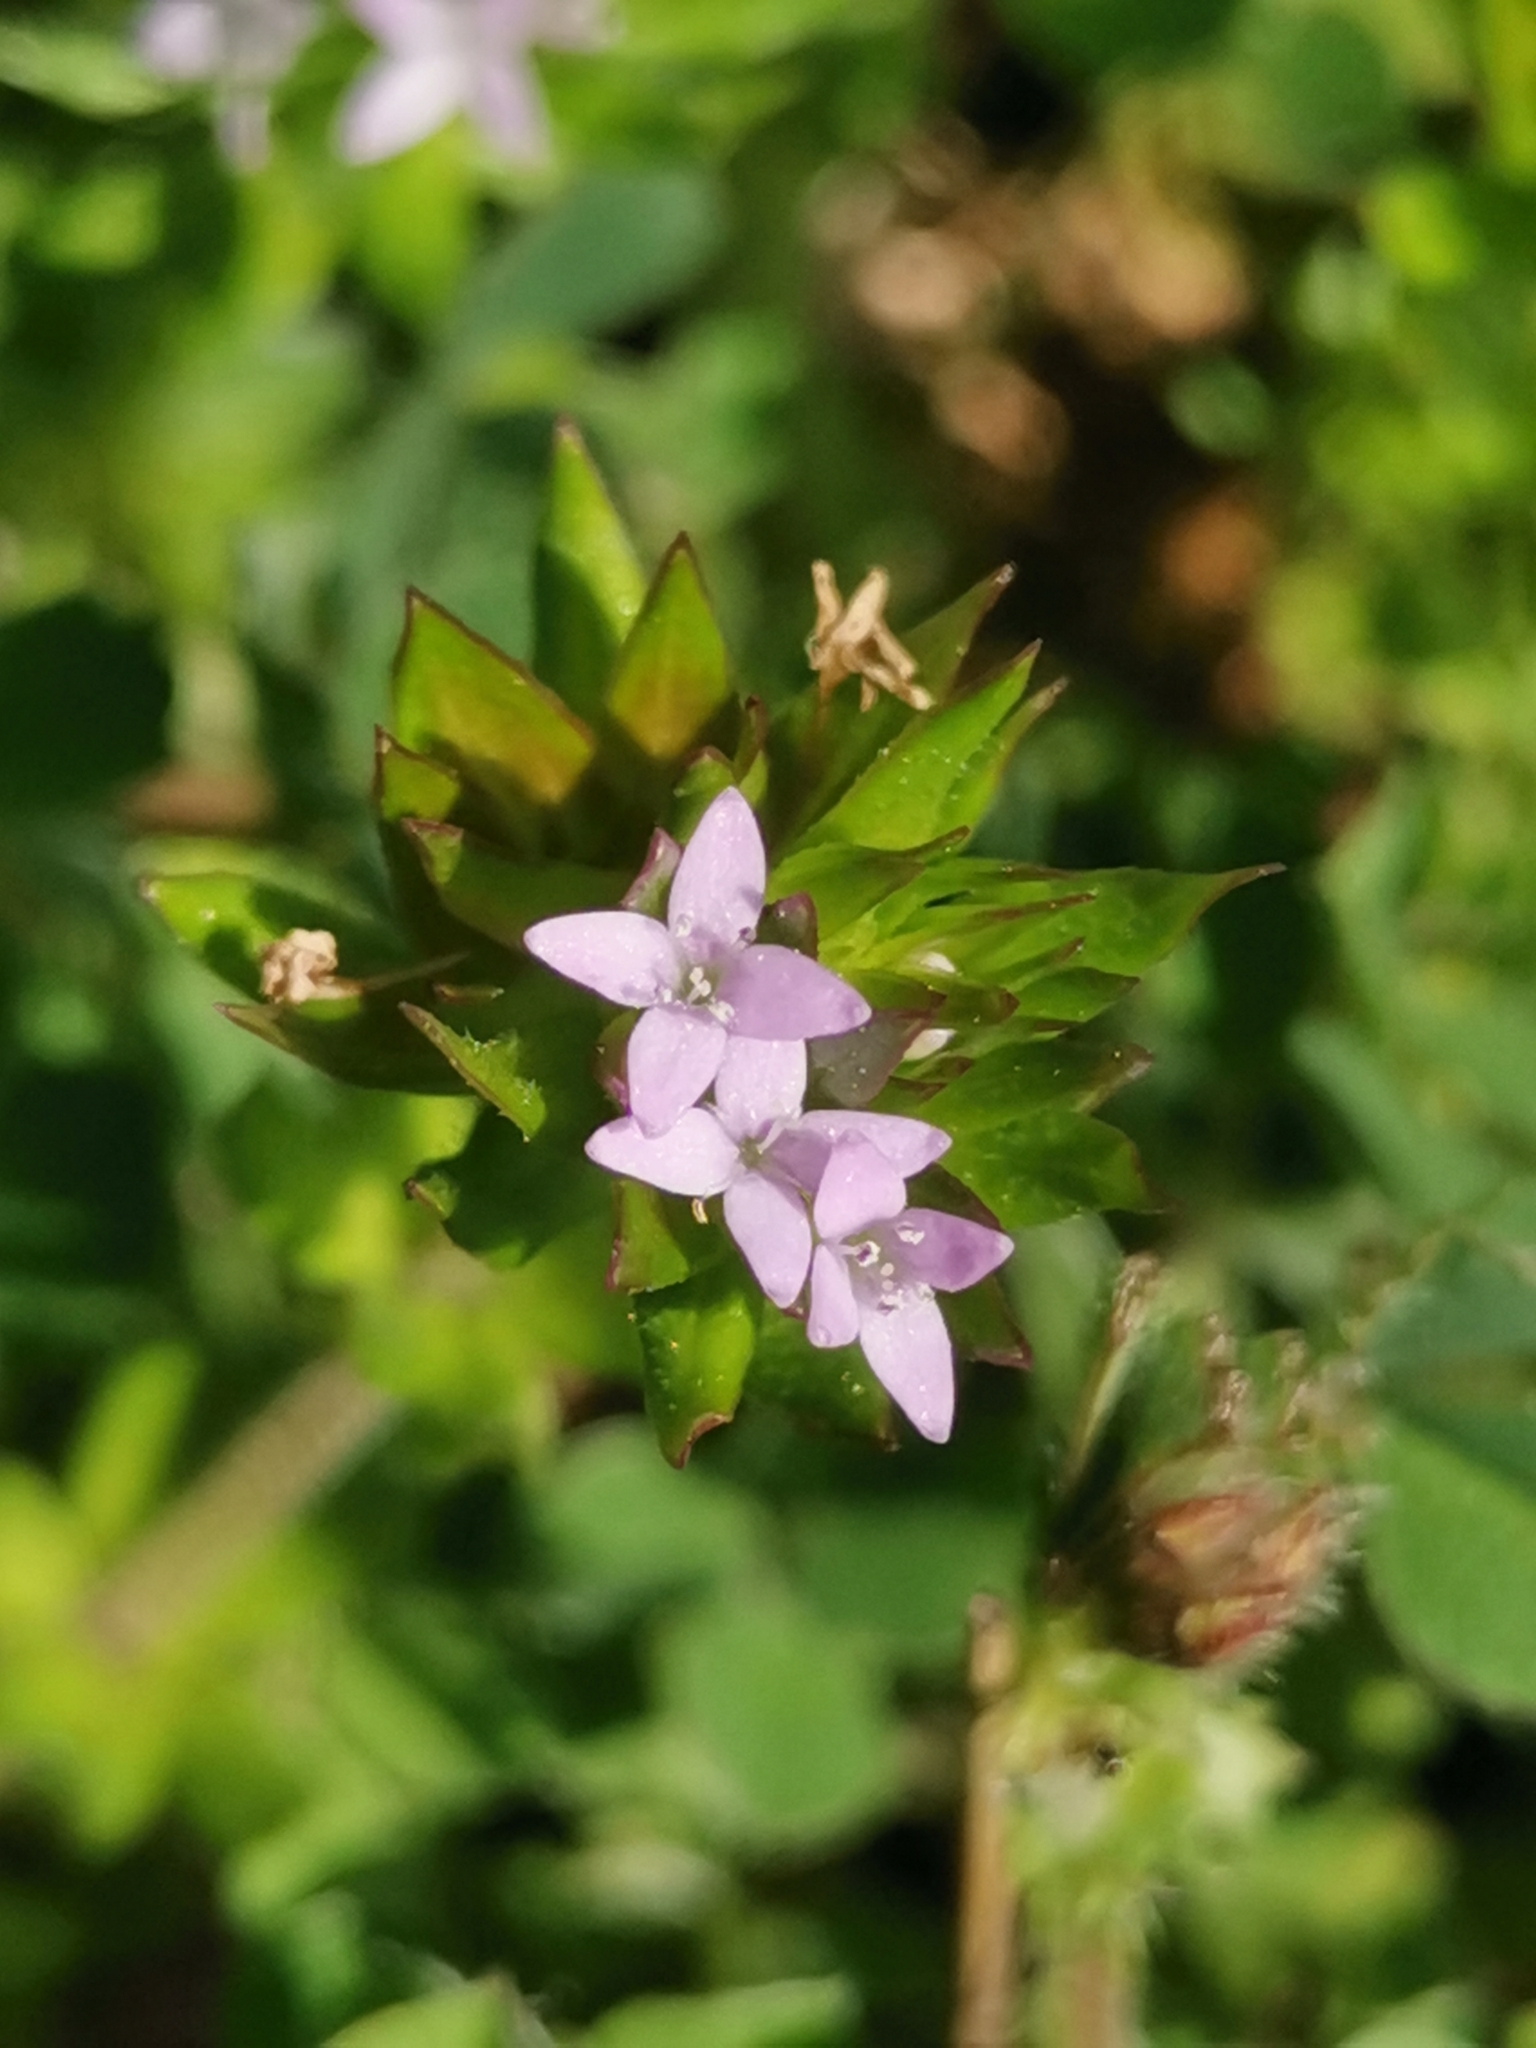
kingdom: Plantae
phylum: Tracheophyta
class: Magnoliopsida
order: Gentianales
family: Rubiaceae
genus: Sherardia
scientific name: Sherardia arvensis
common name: Field madder
